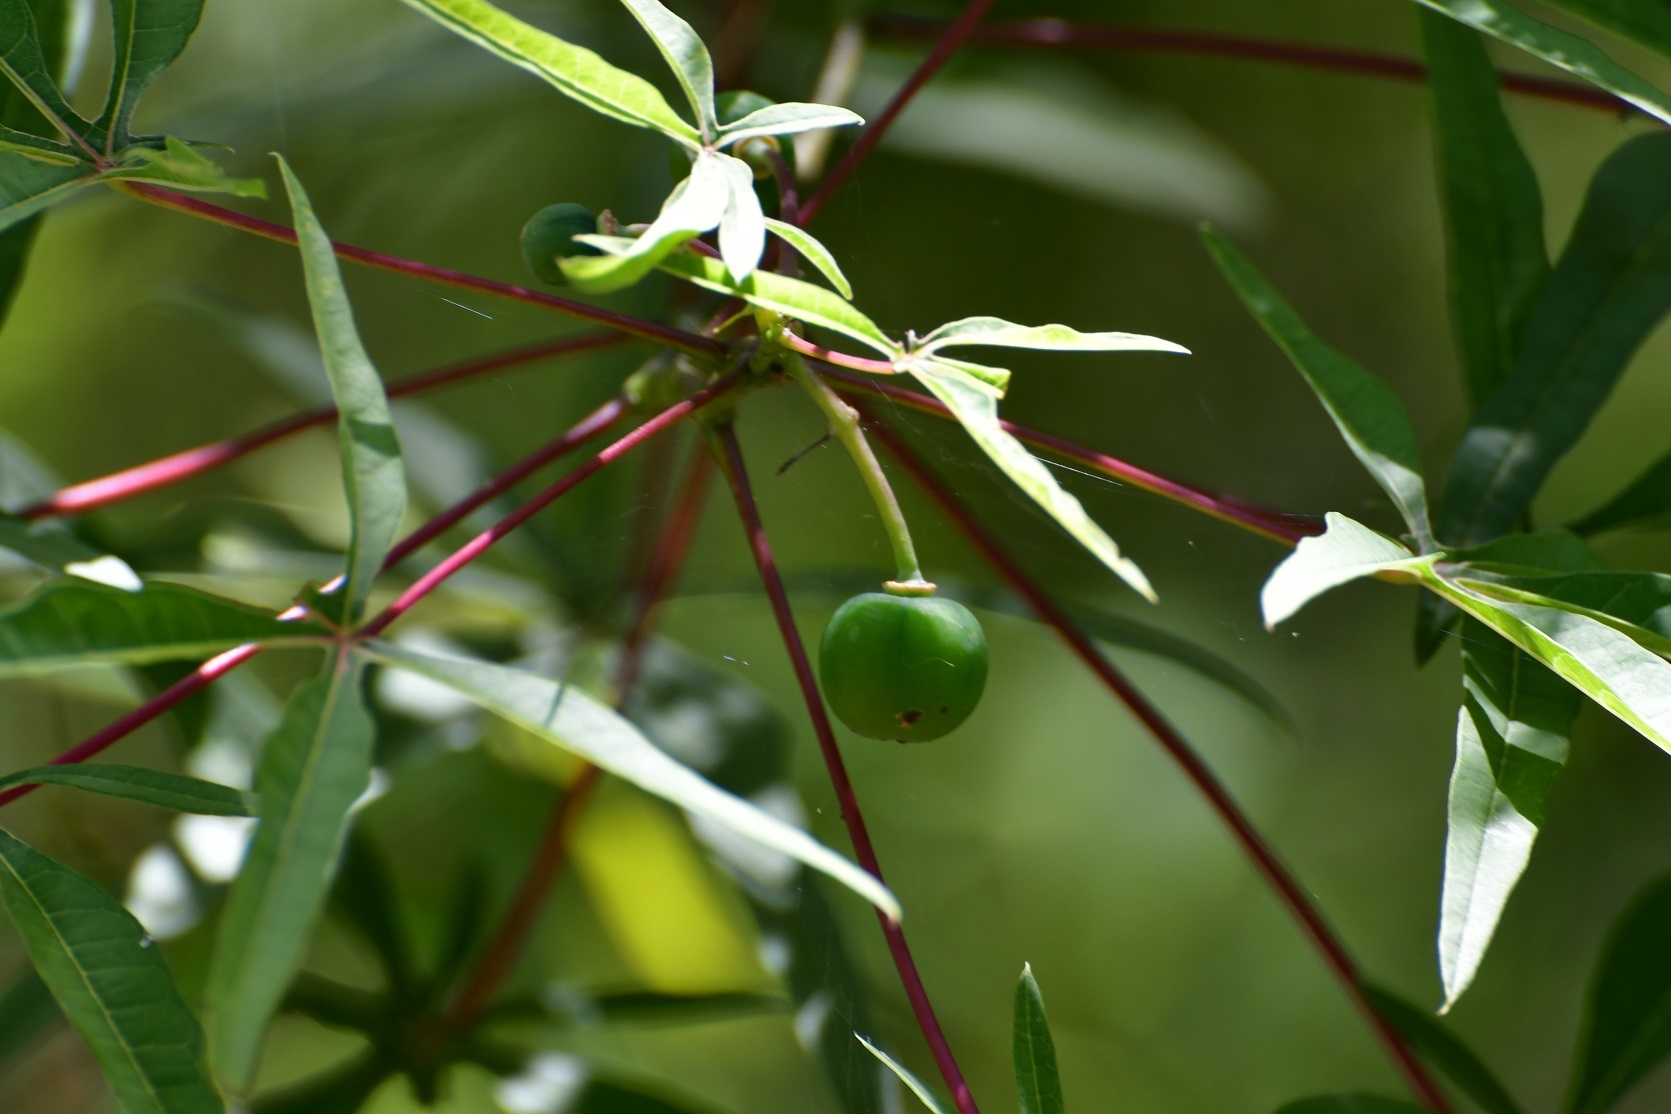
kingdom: Plantae
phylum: Tracheophyta
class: Magnoliopsida
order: Malpighiales
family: Euphorbiaceae
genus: Manihot
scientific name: Manihot rhomboidea
